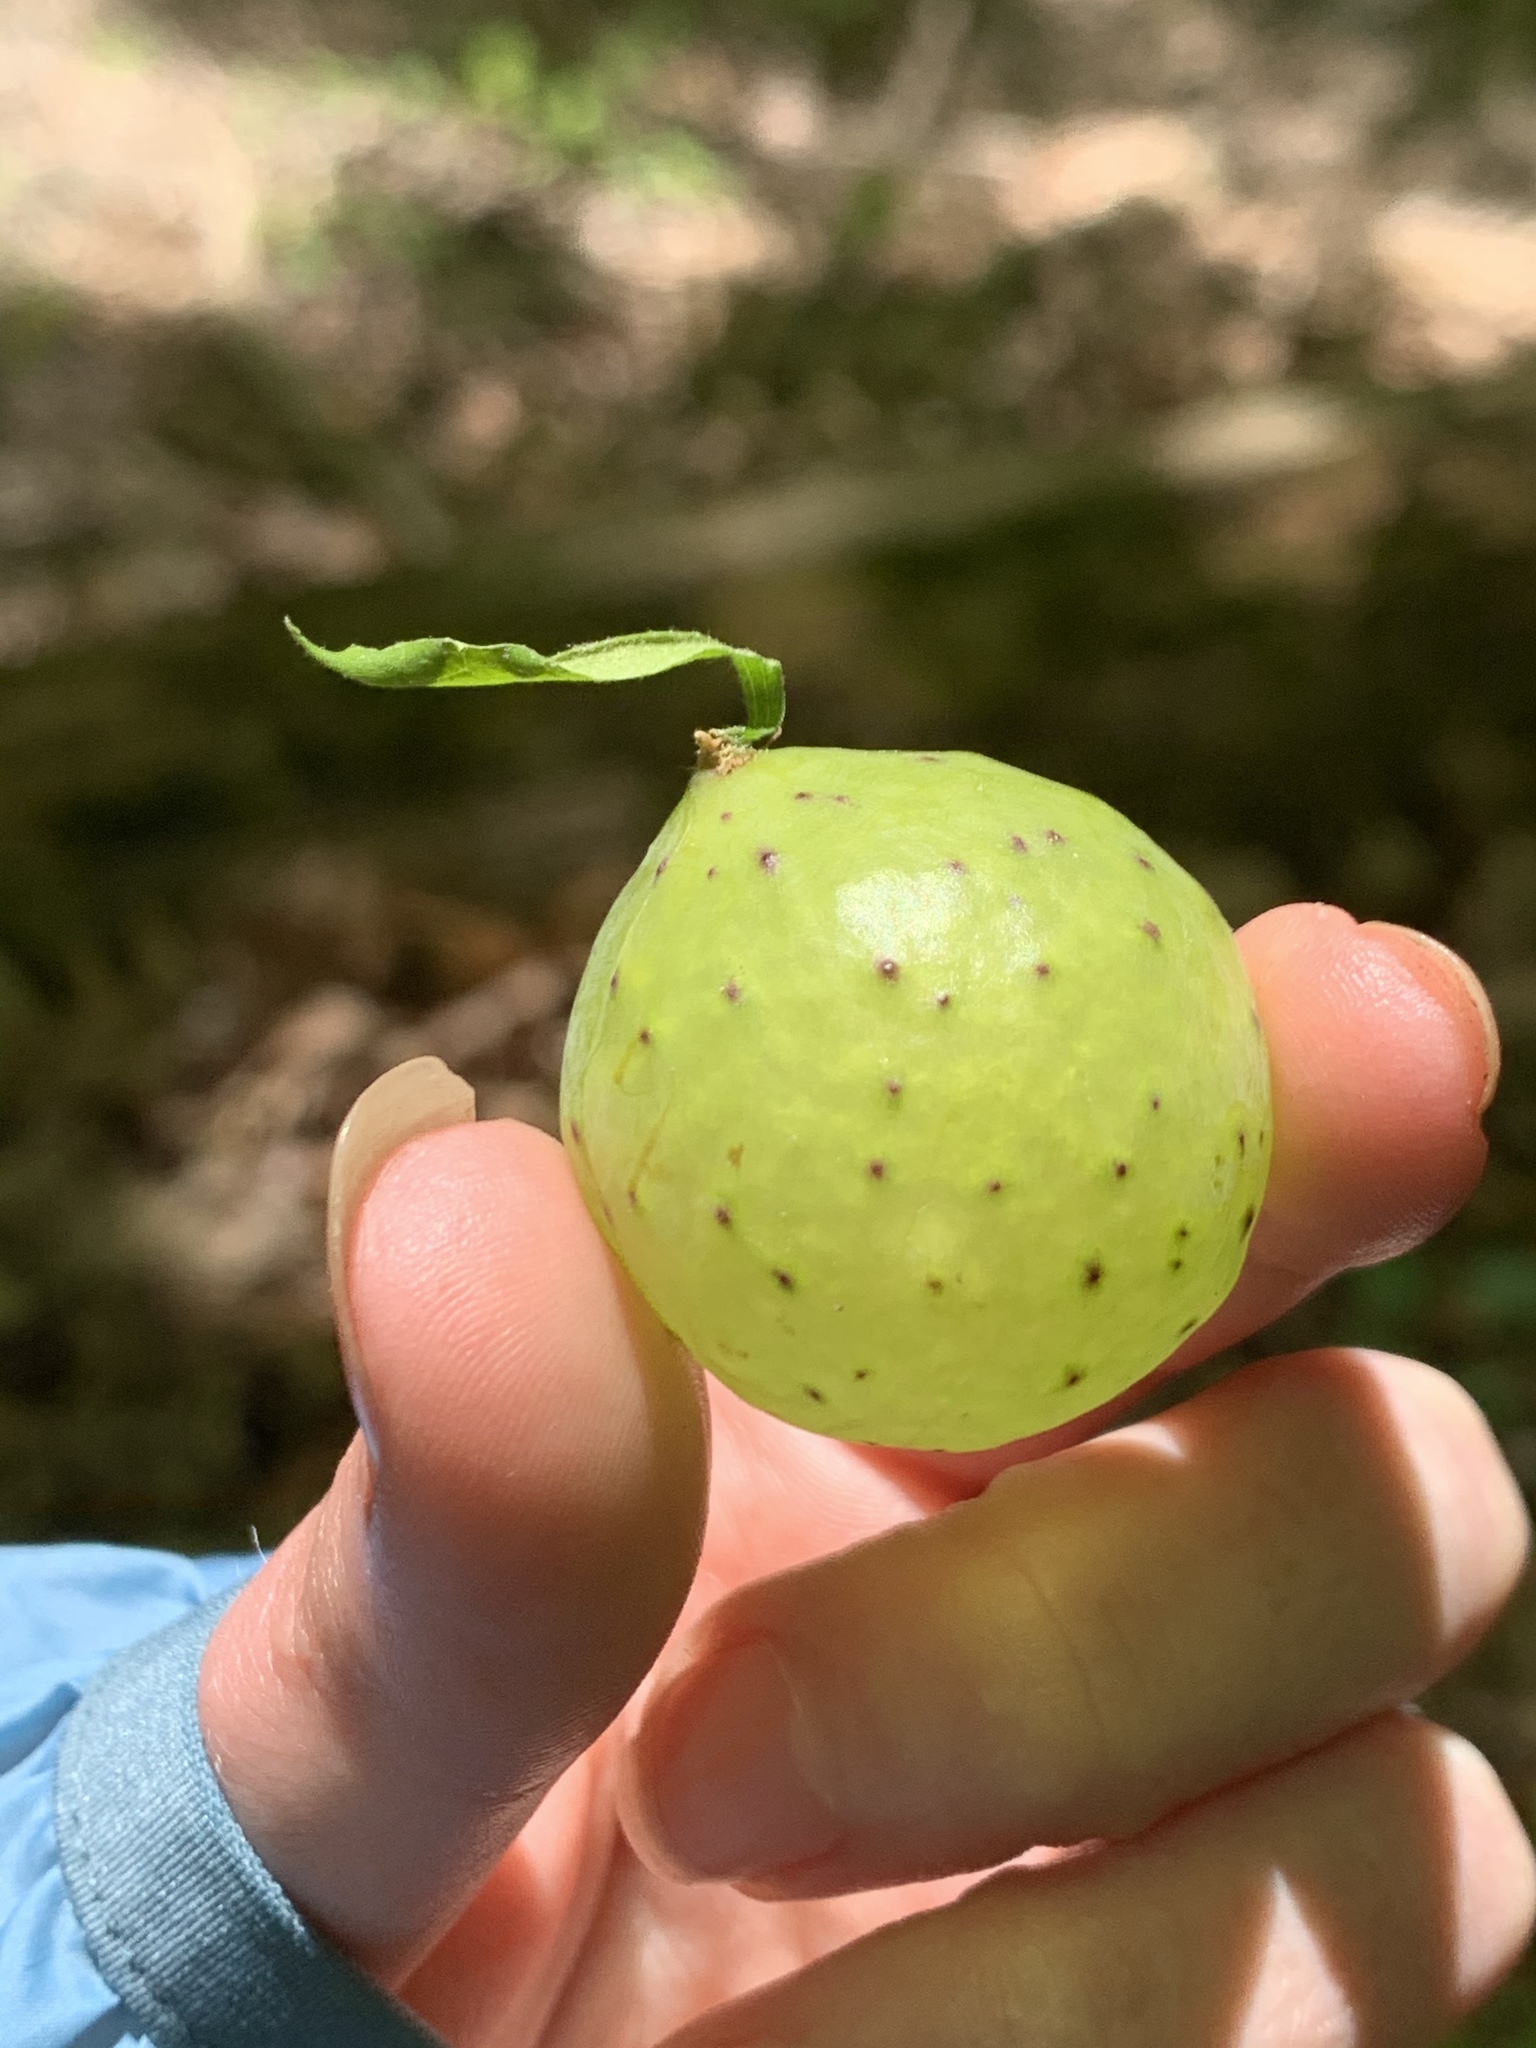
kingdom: Animalia
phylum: Arthropoda
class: Insecta
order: Hymenoptera
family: Cynipidae
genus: Amphibolips
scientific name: Amphibolips
